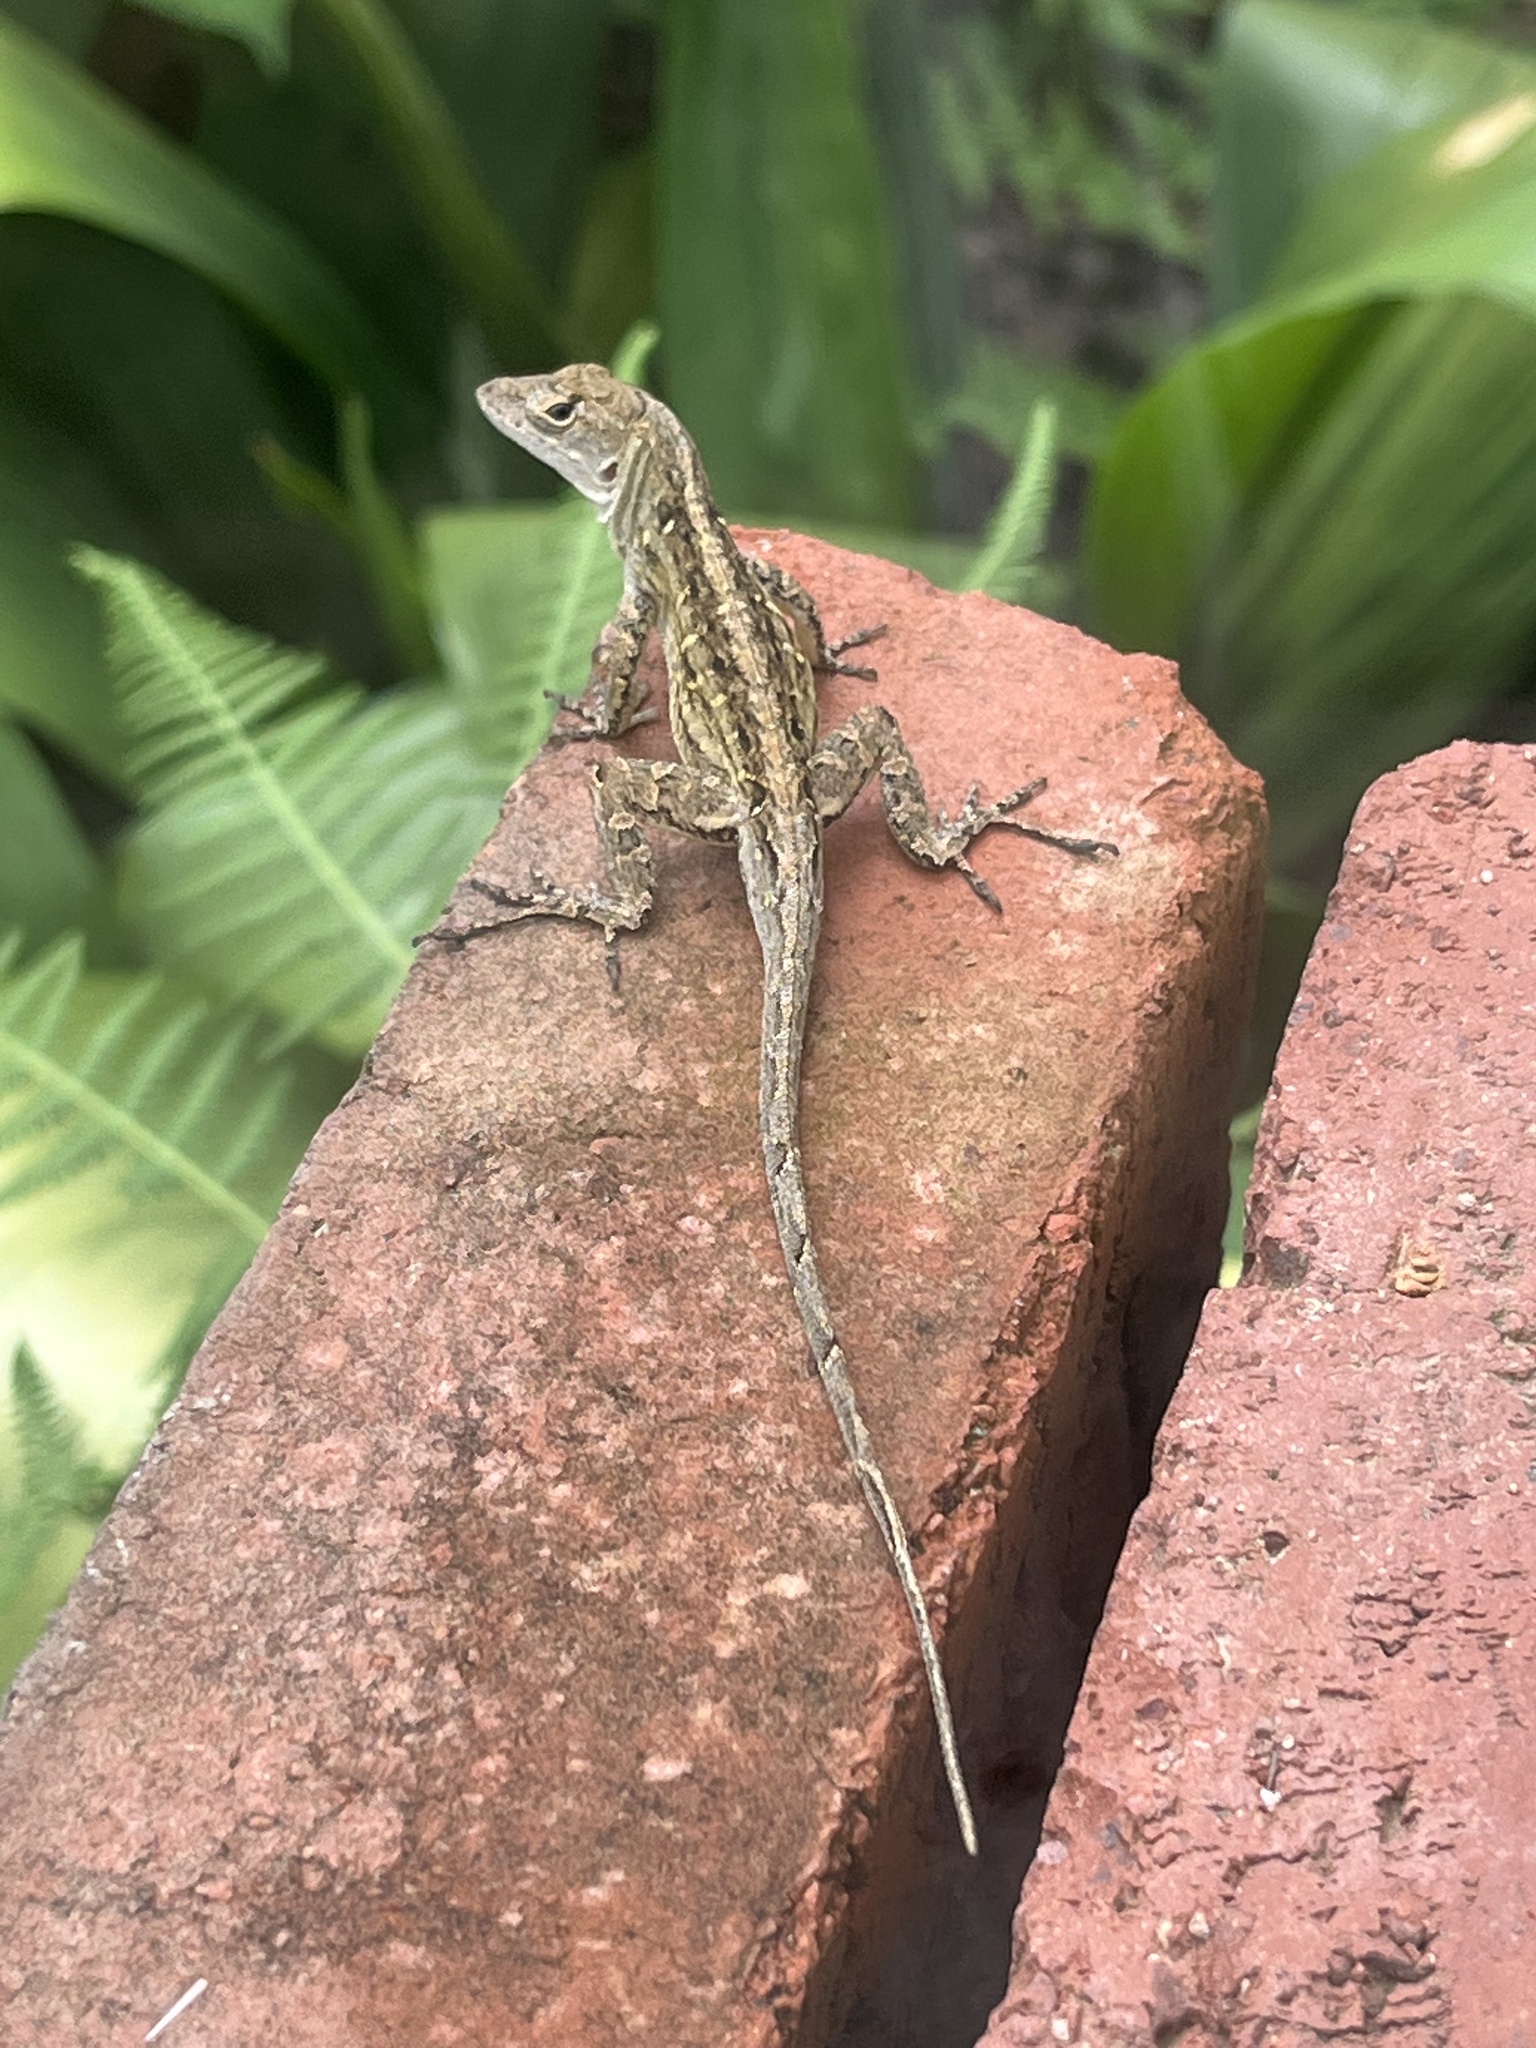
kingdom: Animalia
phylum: Chordata
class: Squamata
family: Dactyloidae
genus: Anolis
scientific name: Anolis sagrei
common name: Brown anole
